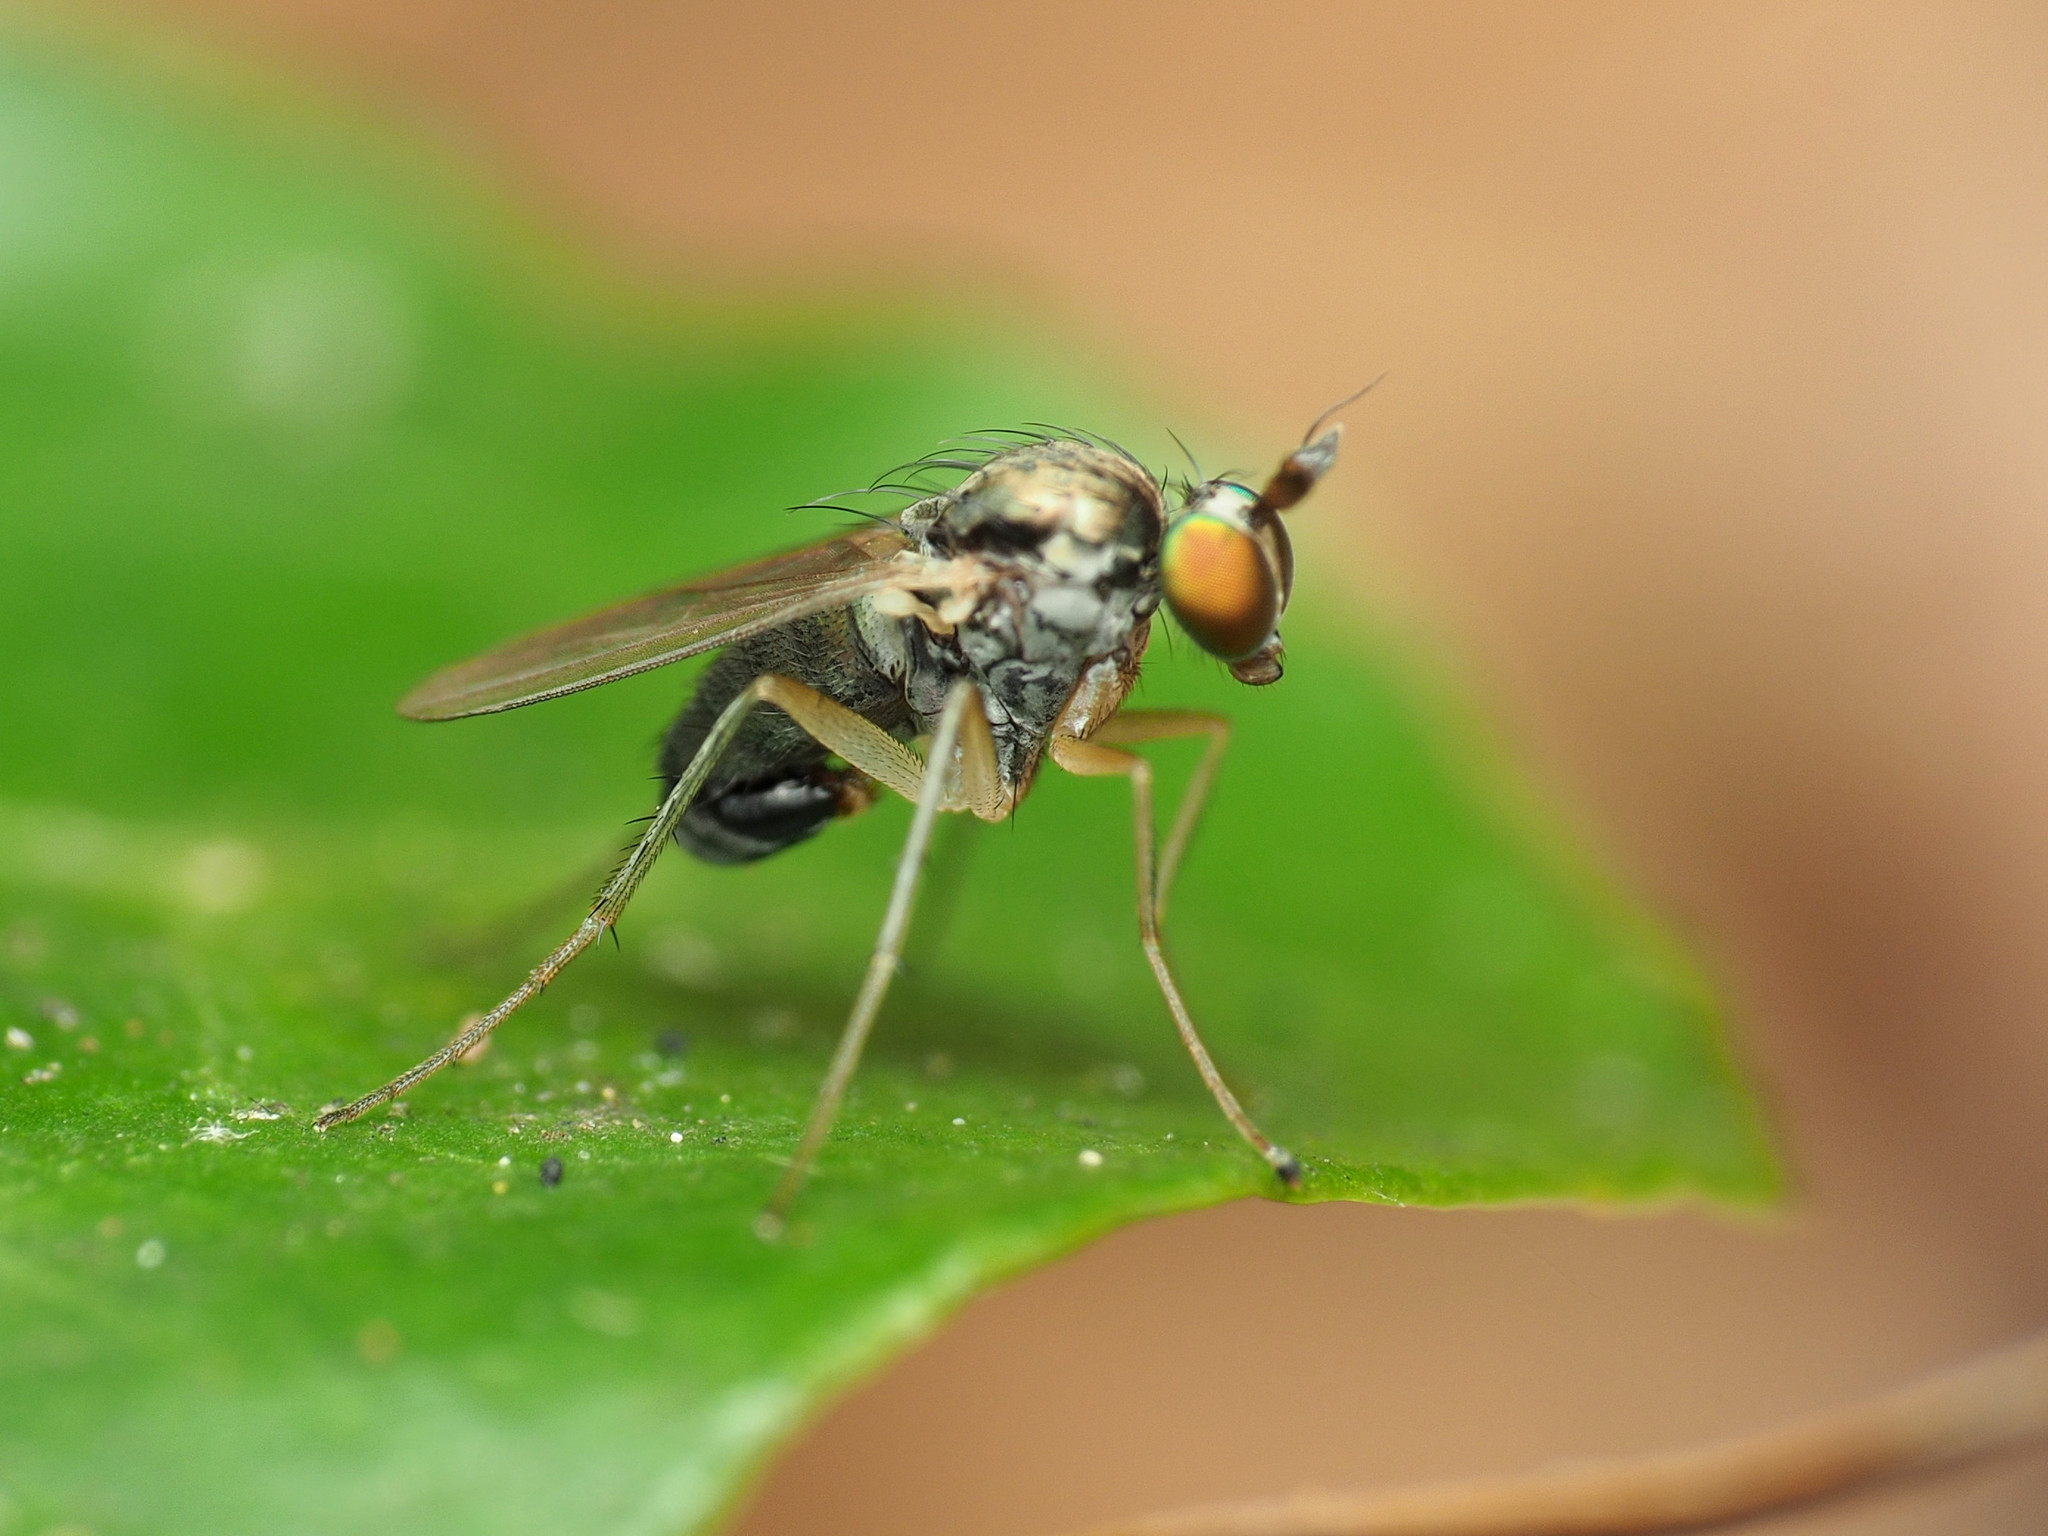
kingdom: Animalia
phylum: Arthropoda
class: Insecta
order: Diptera
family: Dolichopodidae
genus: Gymnopternus
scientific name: Gymnopternus opacus
